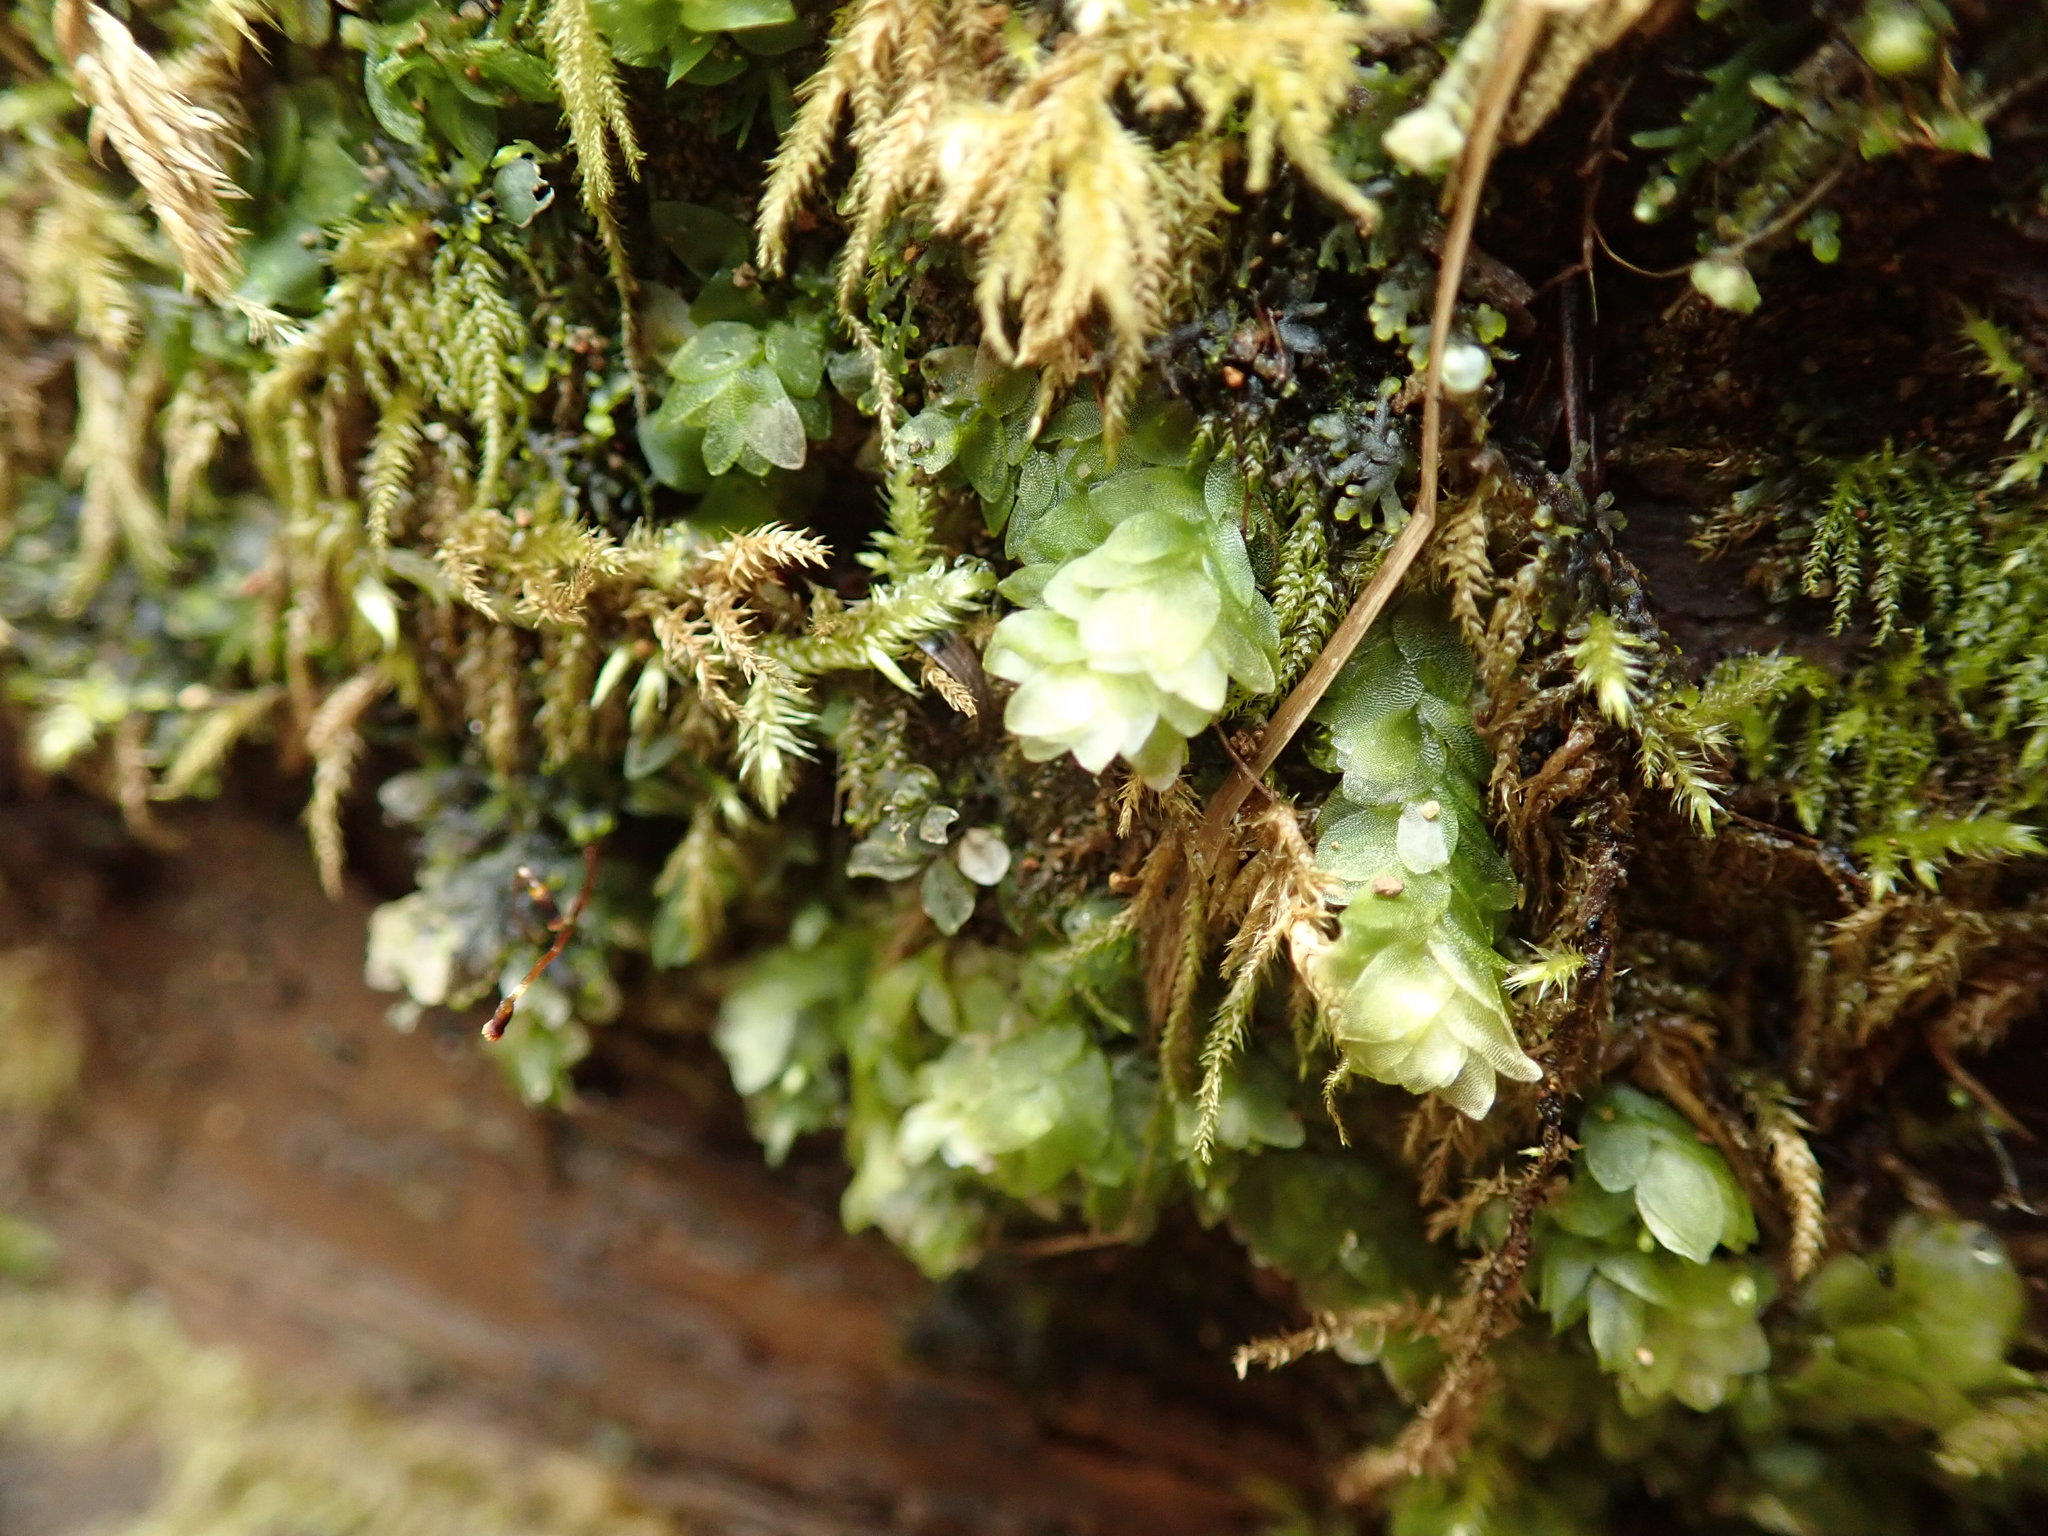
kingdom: Plantae
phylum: Bryophyta
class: Bryopsida
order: Hookeriales
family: Hookeriaceae
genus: Hookeria
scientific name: Hookeria lucens
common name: Shining hookeria
